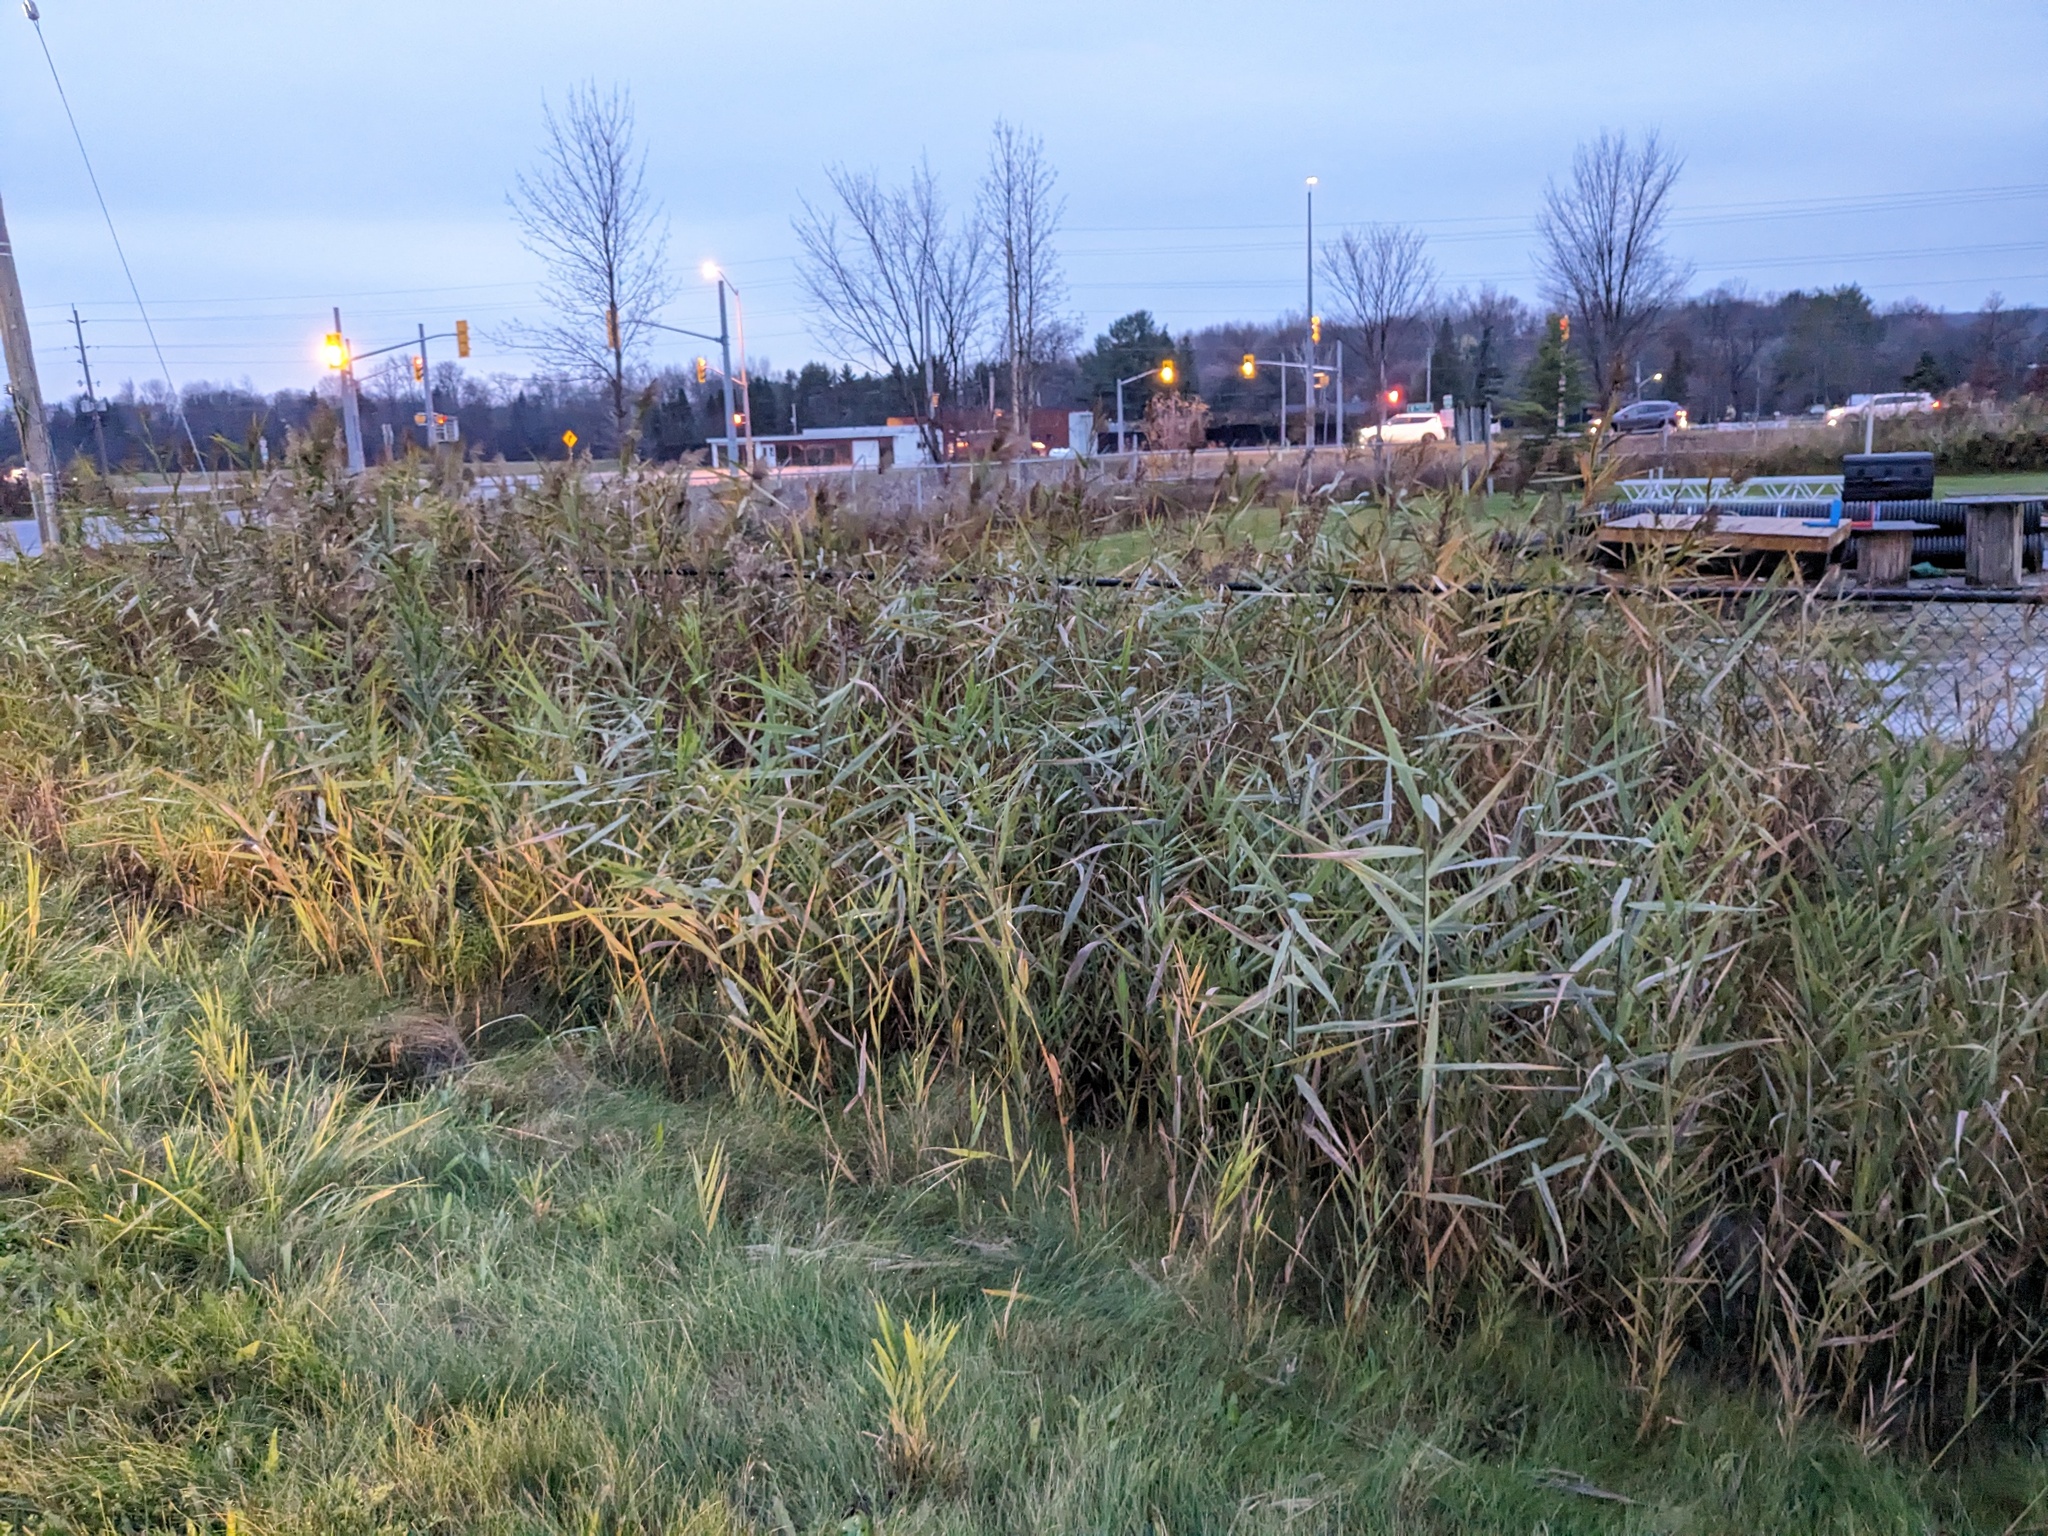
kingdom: Plantae
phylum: Tracheophyta
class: Liliopsida
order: Poales
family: Poaceae
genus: Phragmites
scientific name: Phragmites australis
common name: Common reed
